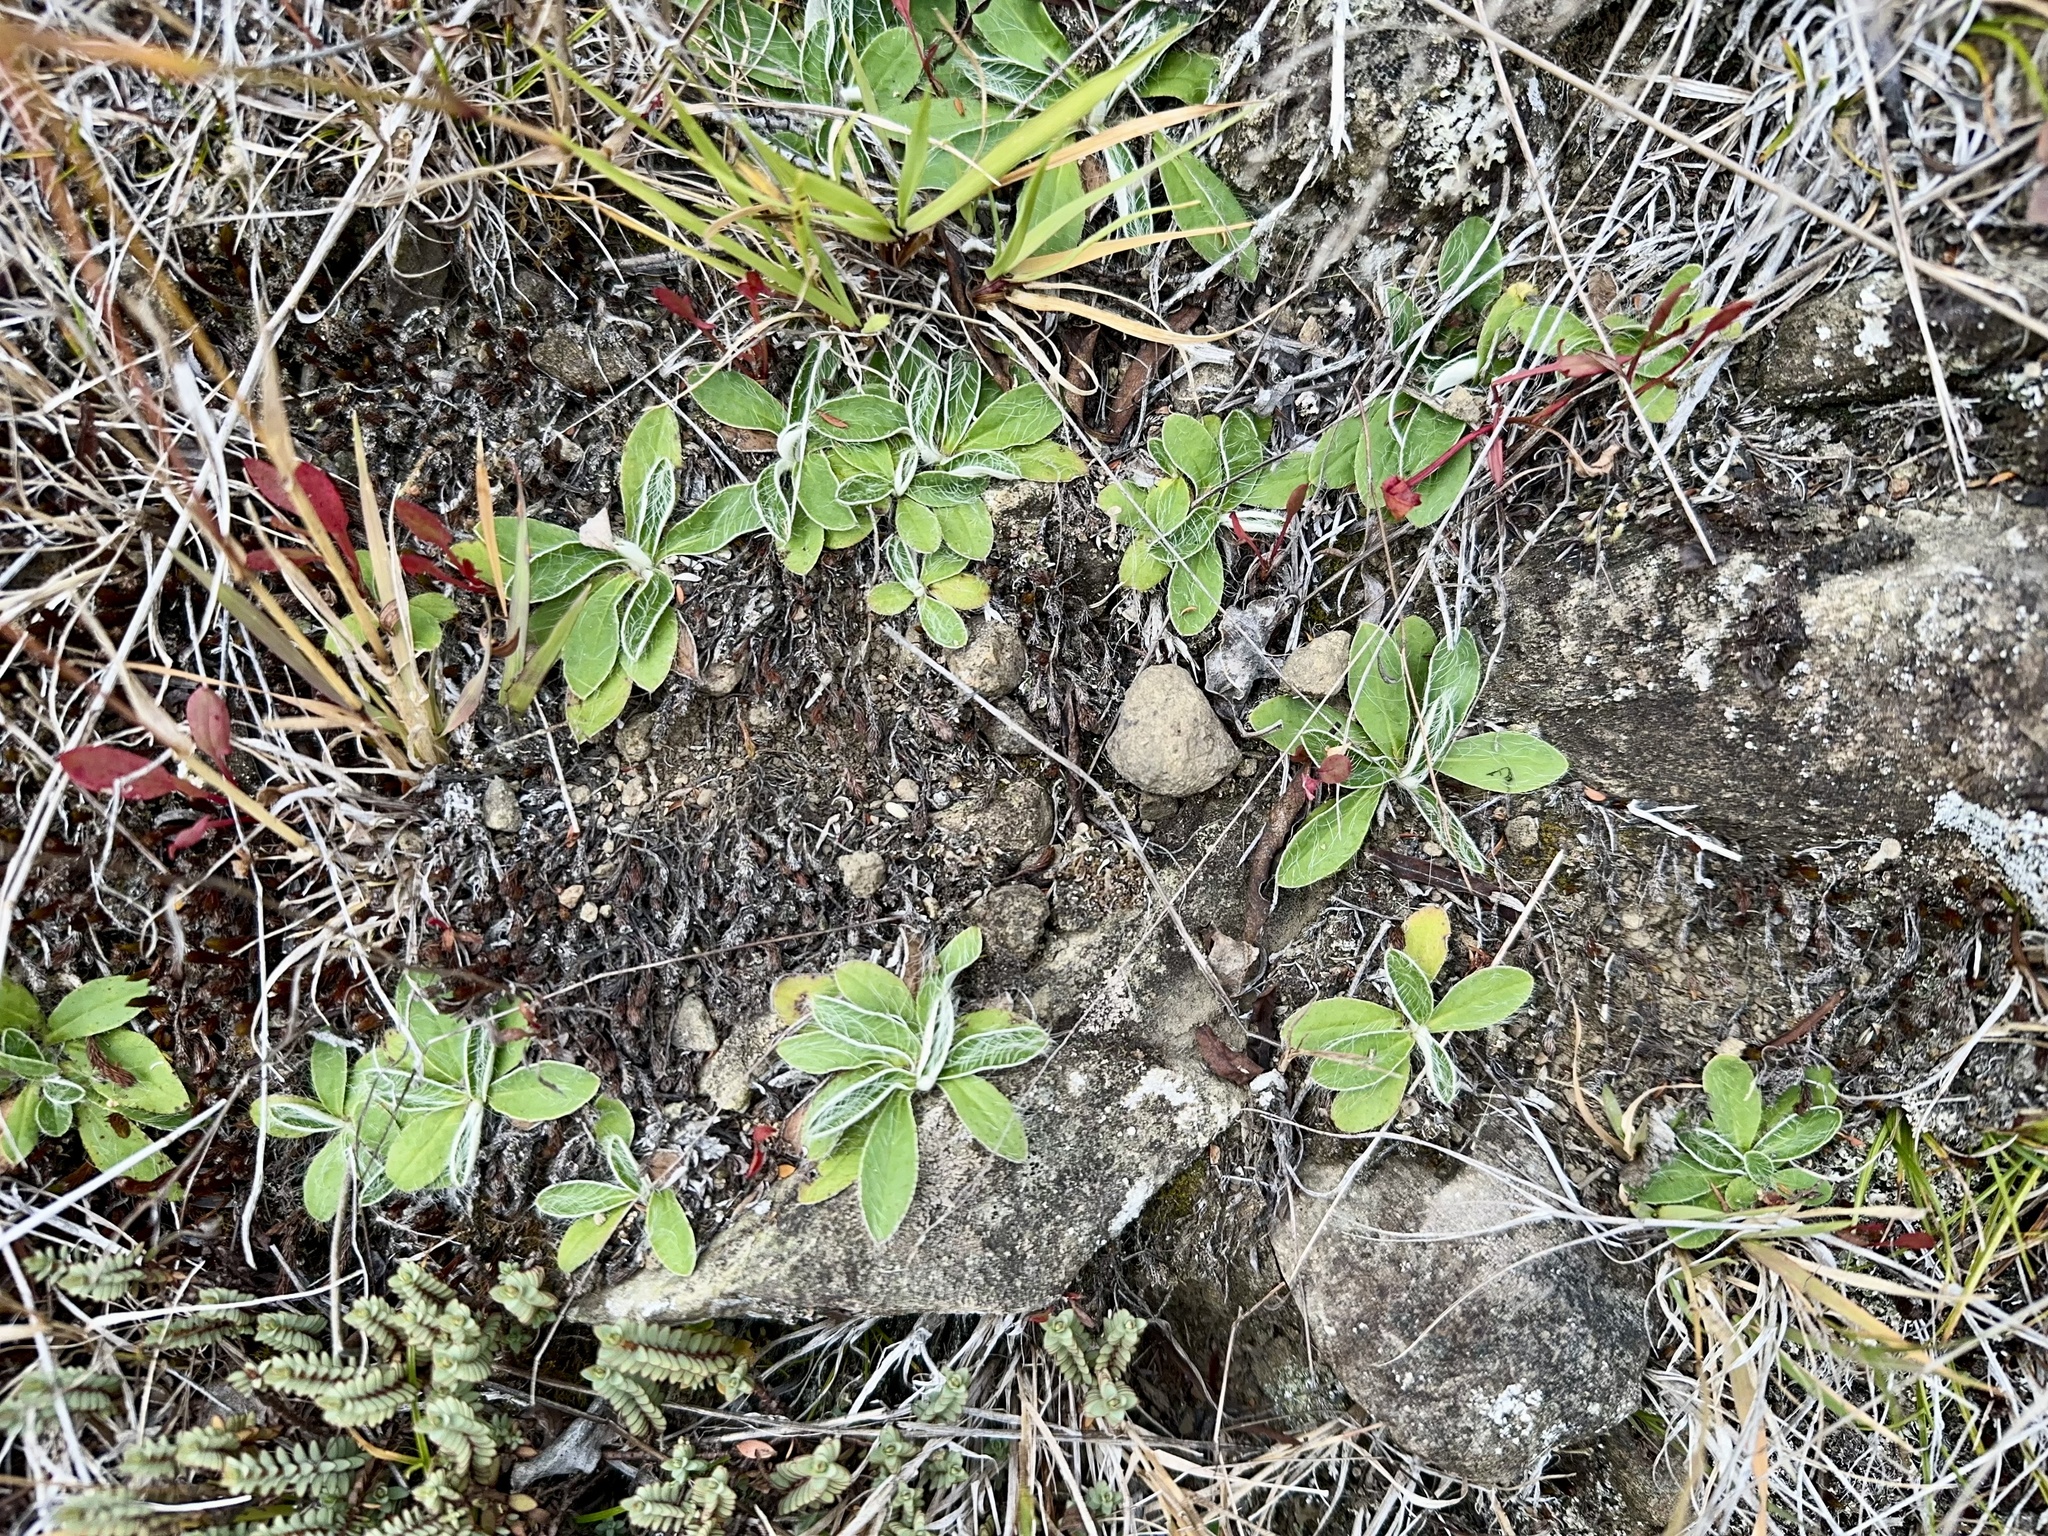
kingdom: Plantae
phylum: Tracheophyta
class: Magnoliopsida
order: Asterales
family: Asteraceae
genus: Pilosella
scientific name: Pilosella officinarum
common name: Mouse-ear hawkweed
